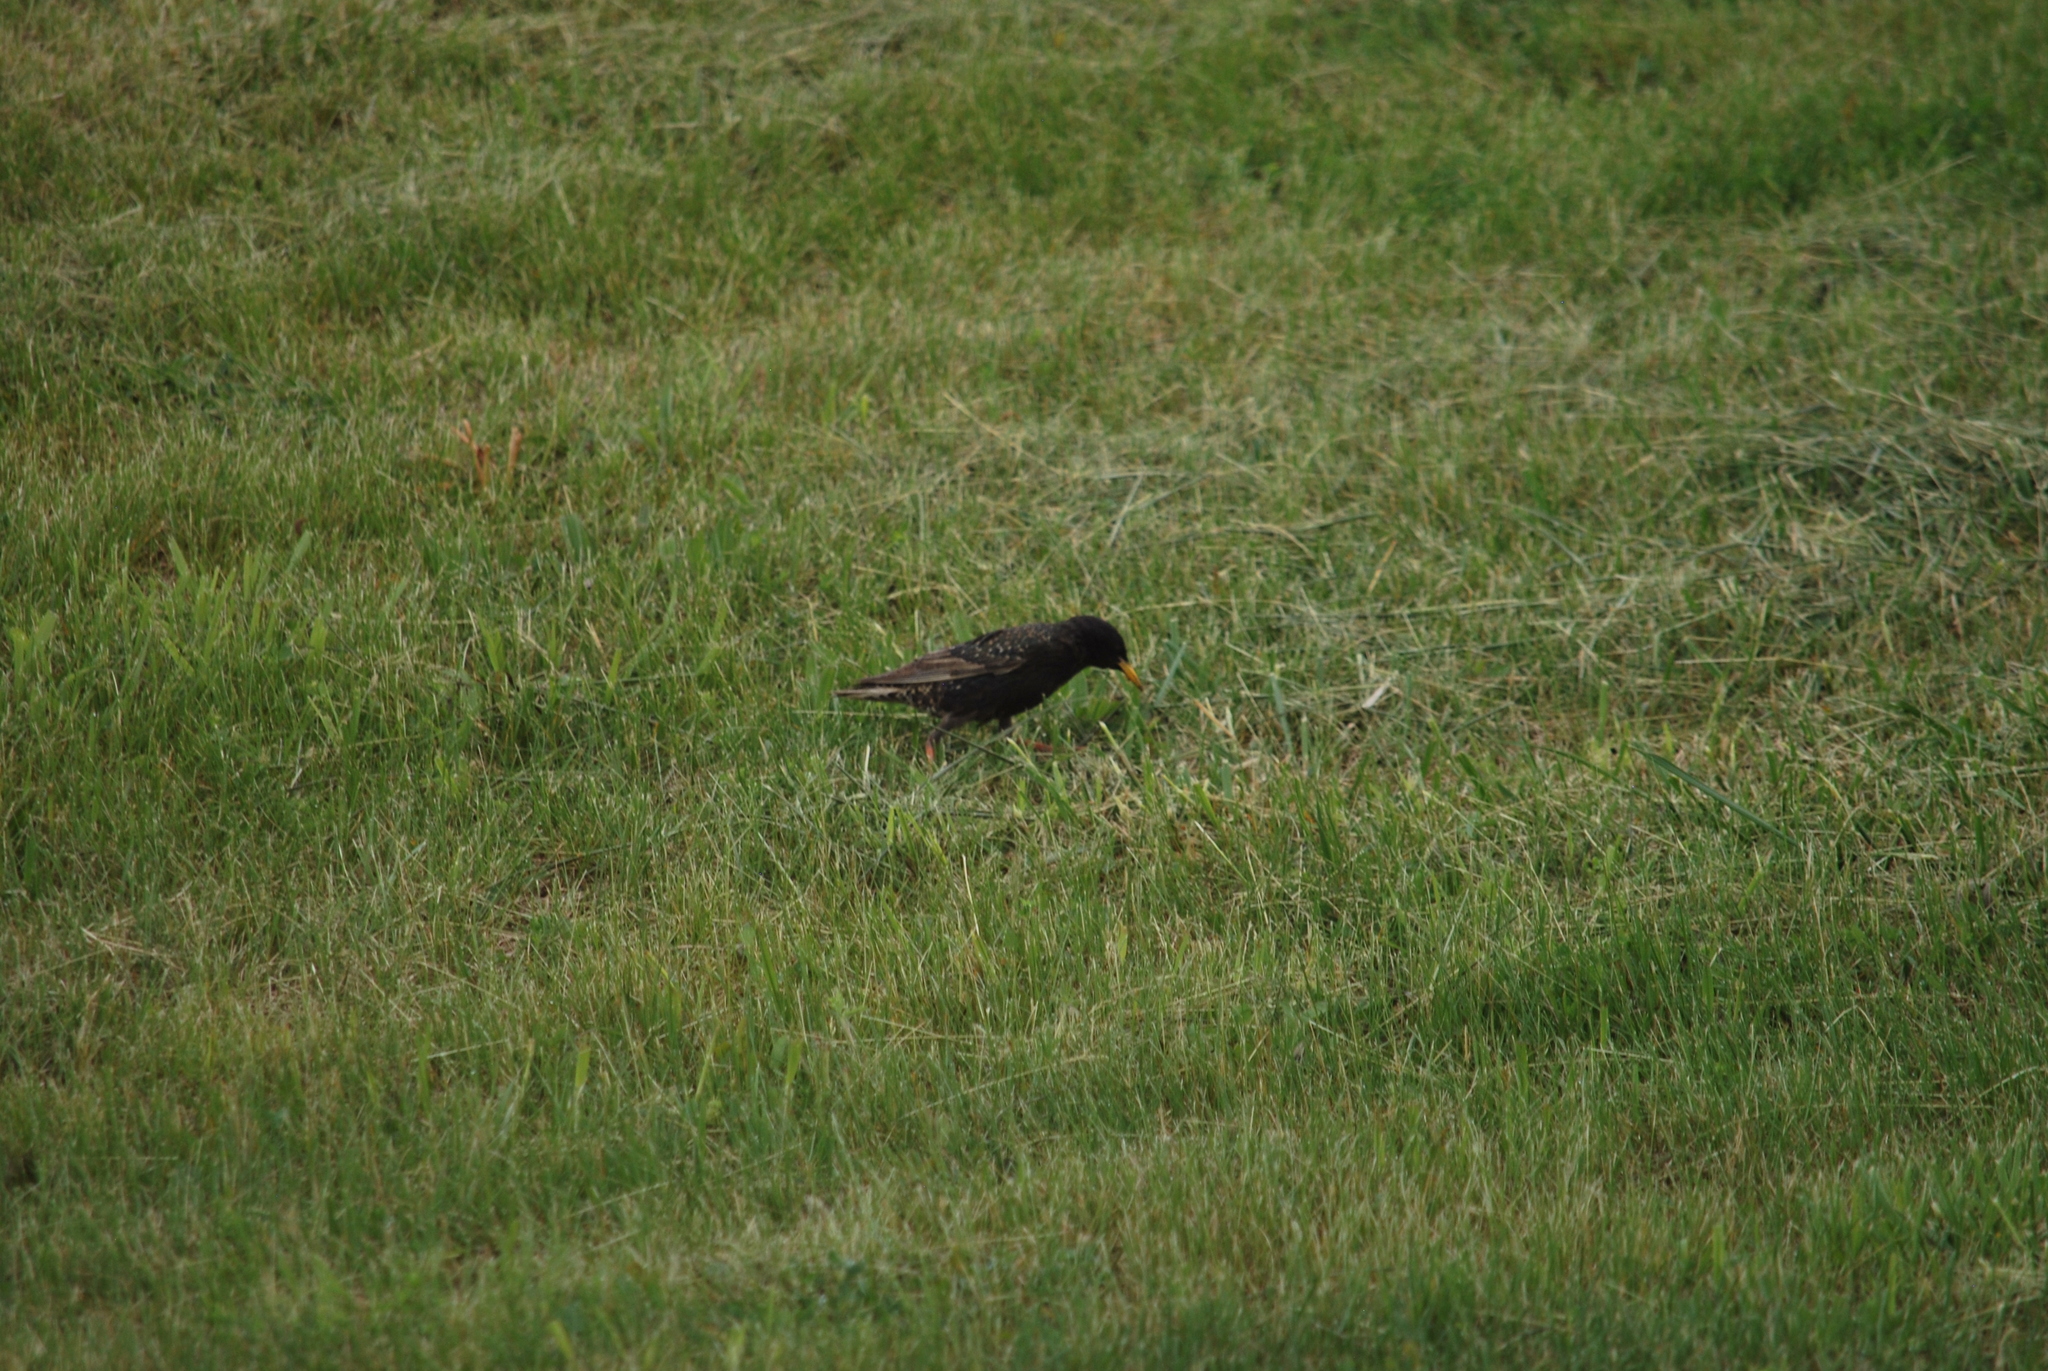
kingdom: Animalia
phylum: Chordata
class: Aves
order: Passeriformes
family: Sturnidae
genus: Sturnus
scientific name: Sturnus vulgaris
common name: Common starling
